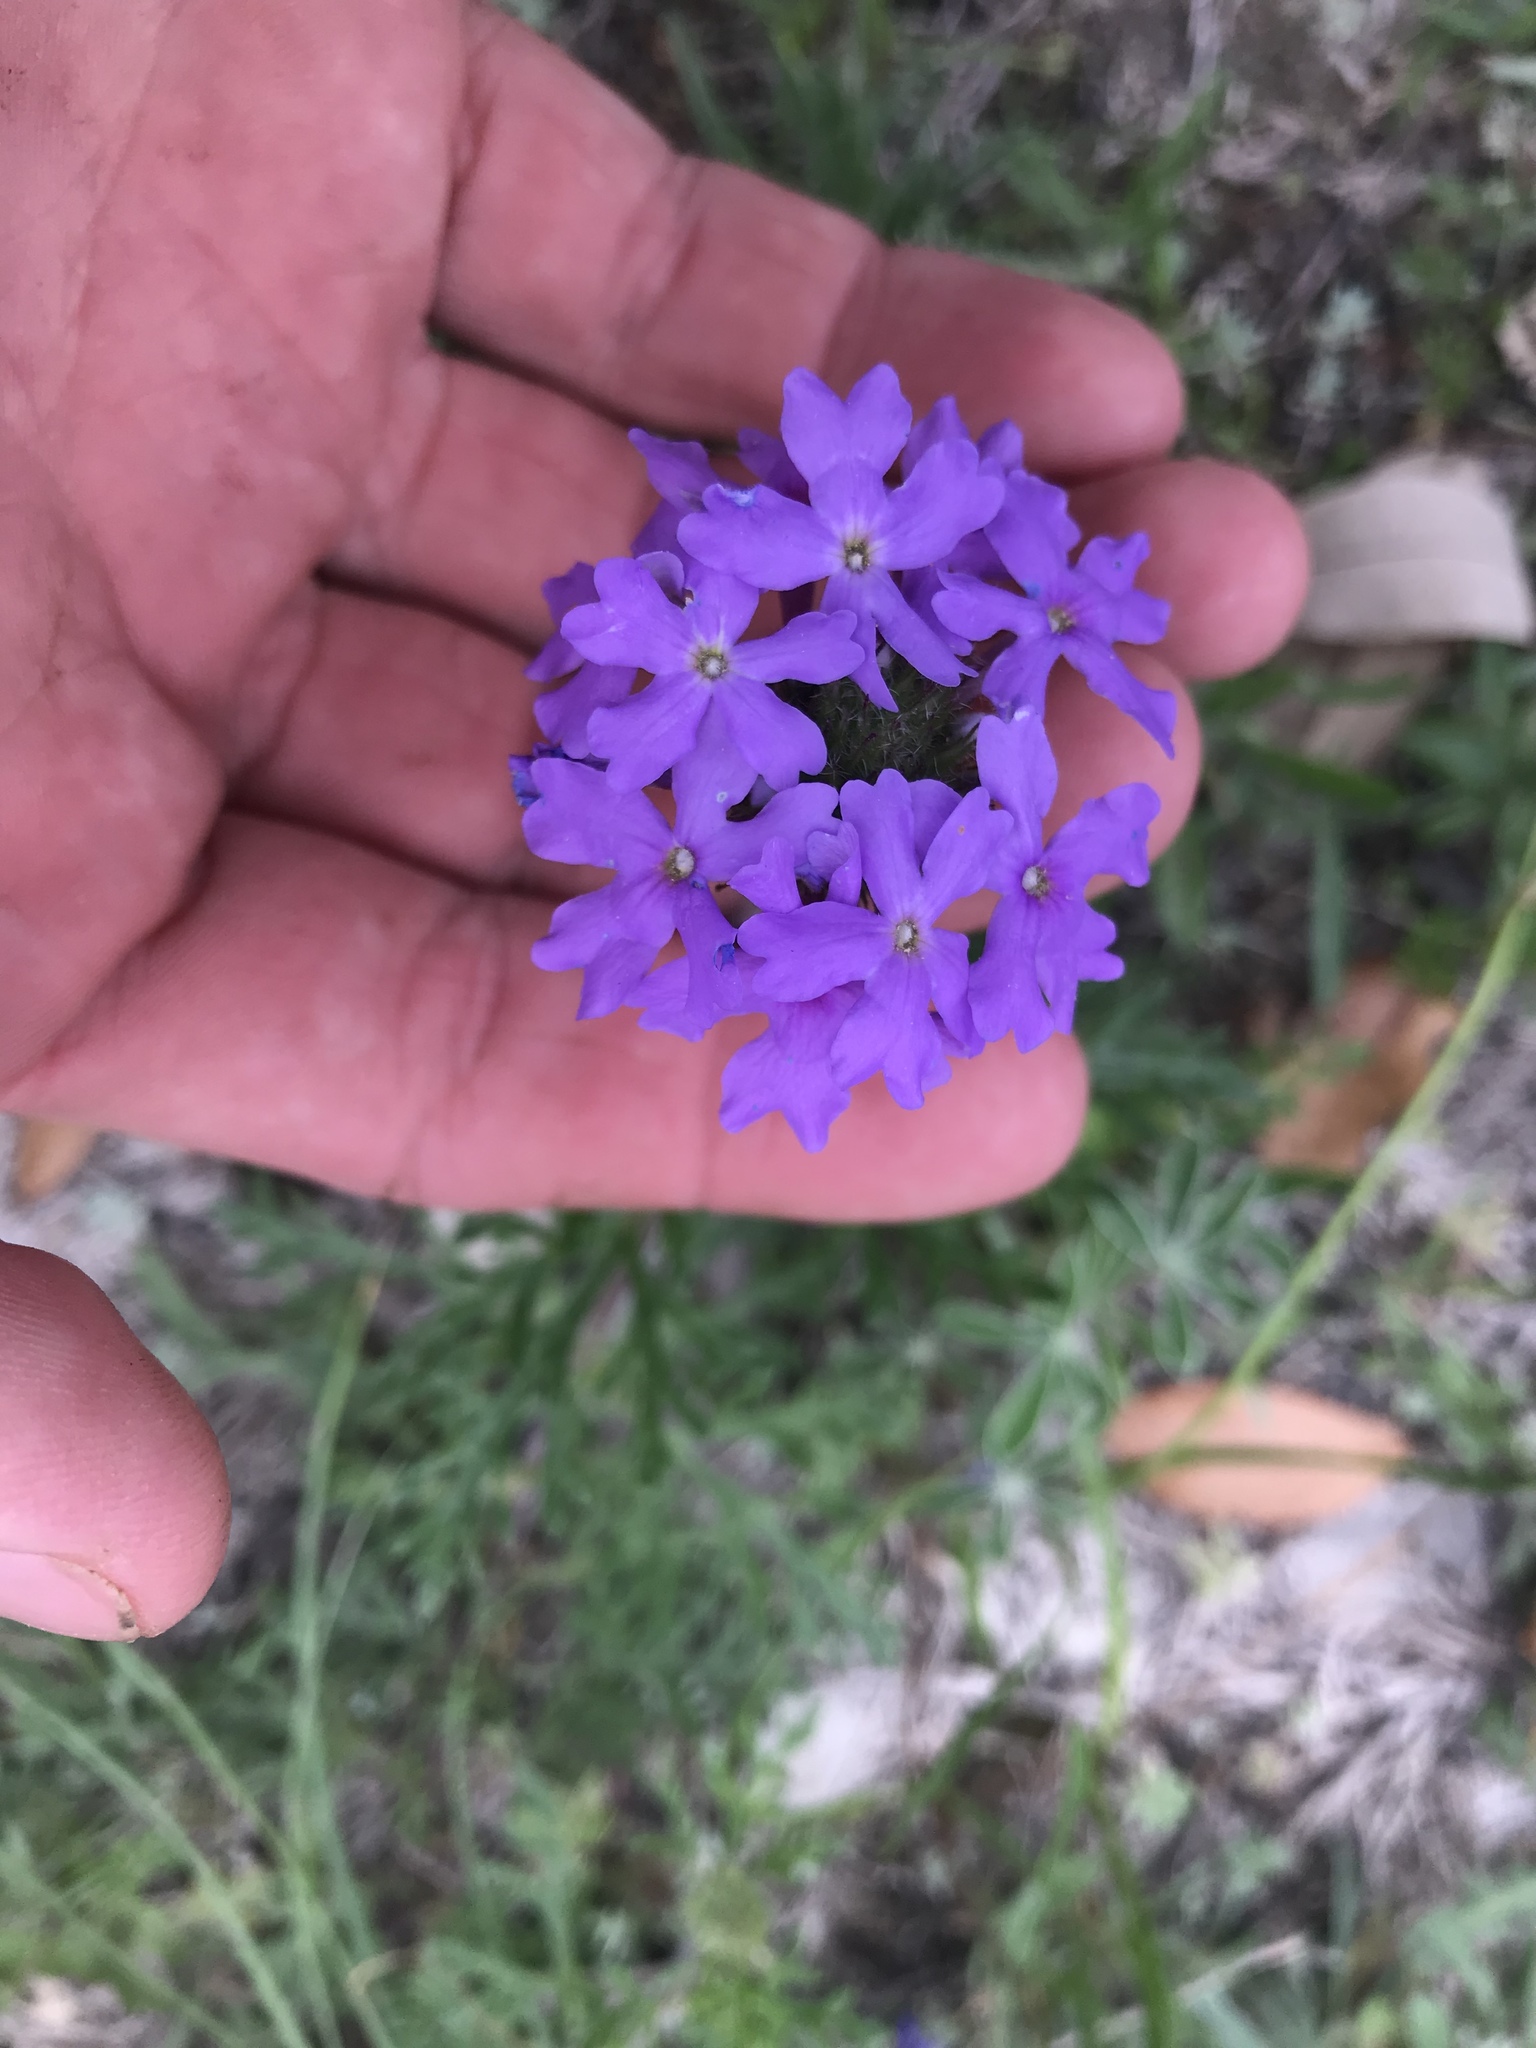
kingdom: Plantae
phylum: Tracheophyta
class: Magnoliopsida
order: Lamiales
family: Verbenaceae
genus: Verbena
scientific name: Verbena bipinnatifida
